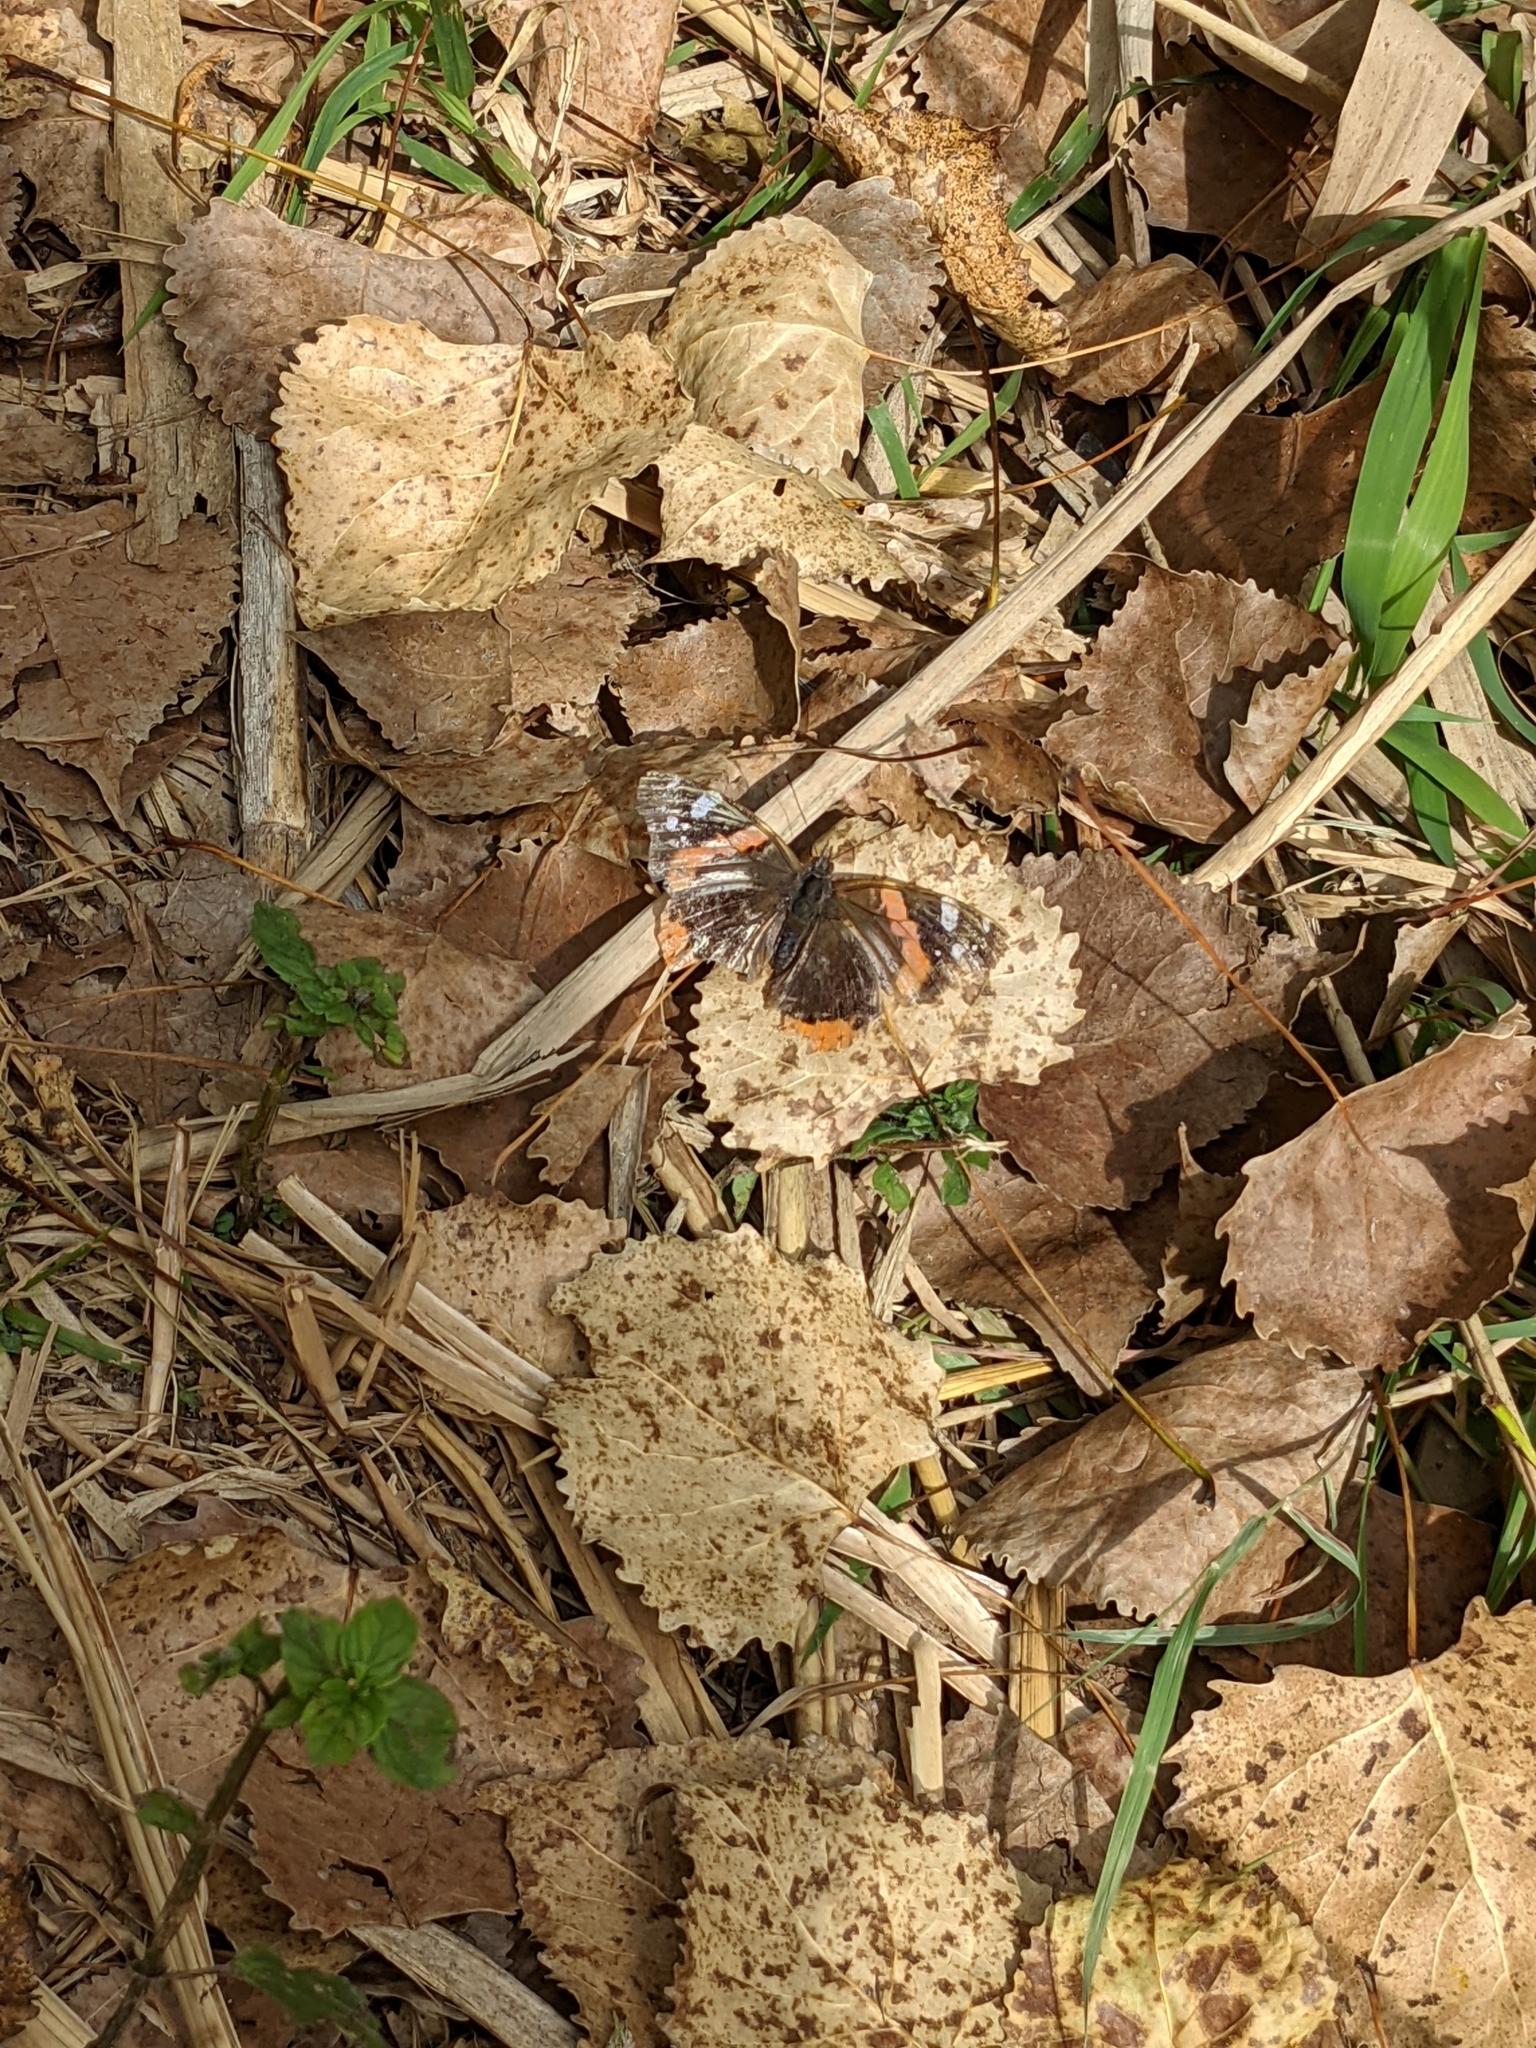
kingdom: Animalia
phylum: Arthropoda
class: Insecta
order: Lepidoptera
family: Nymphalidae
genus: Vanessa
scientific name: Vanessa atalanta
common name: Red admiral
